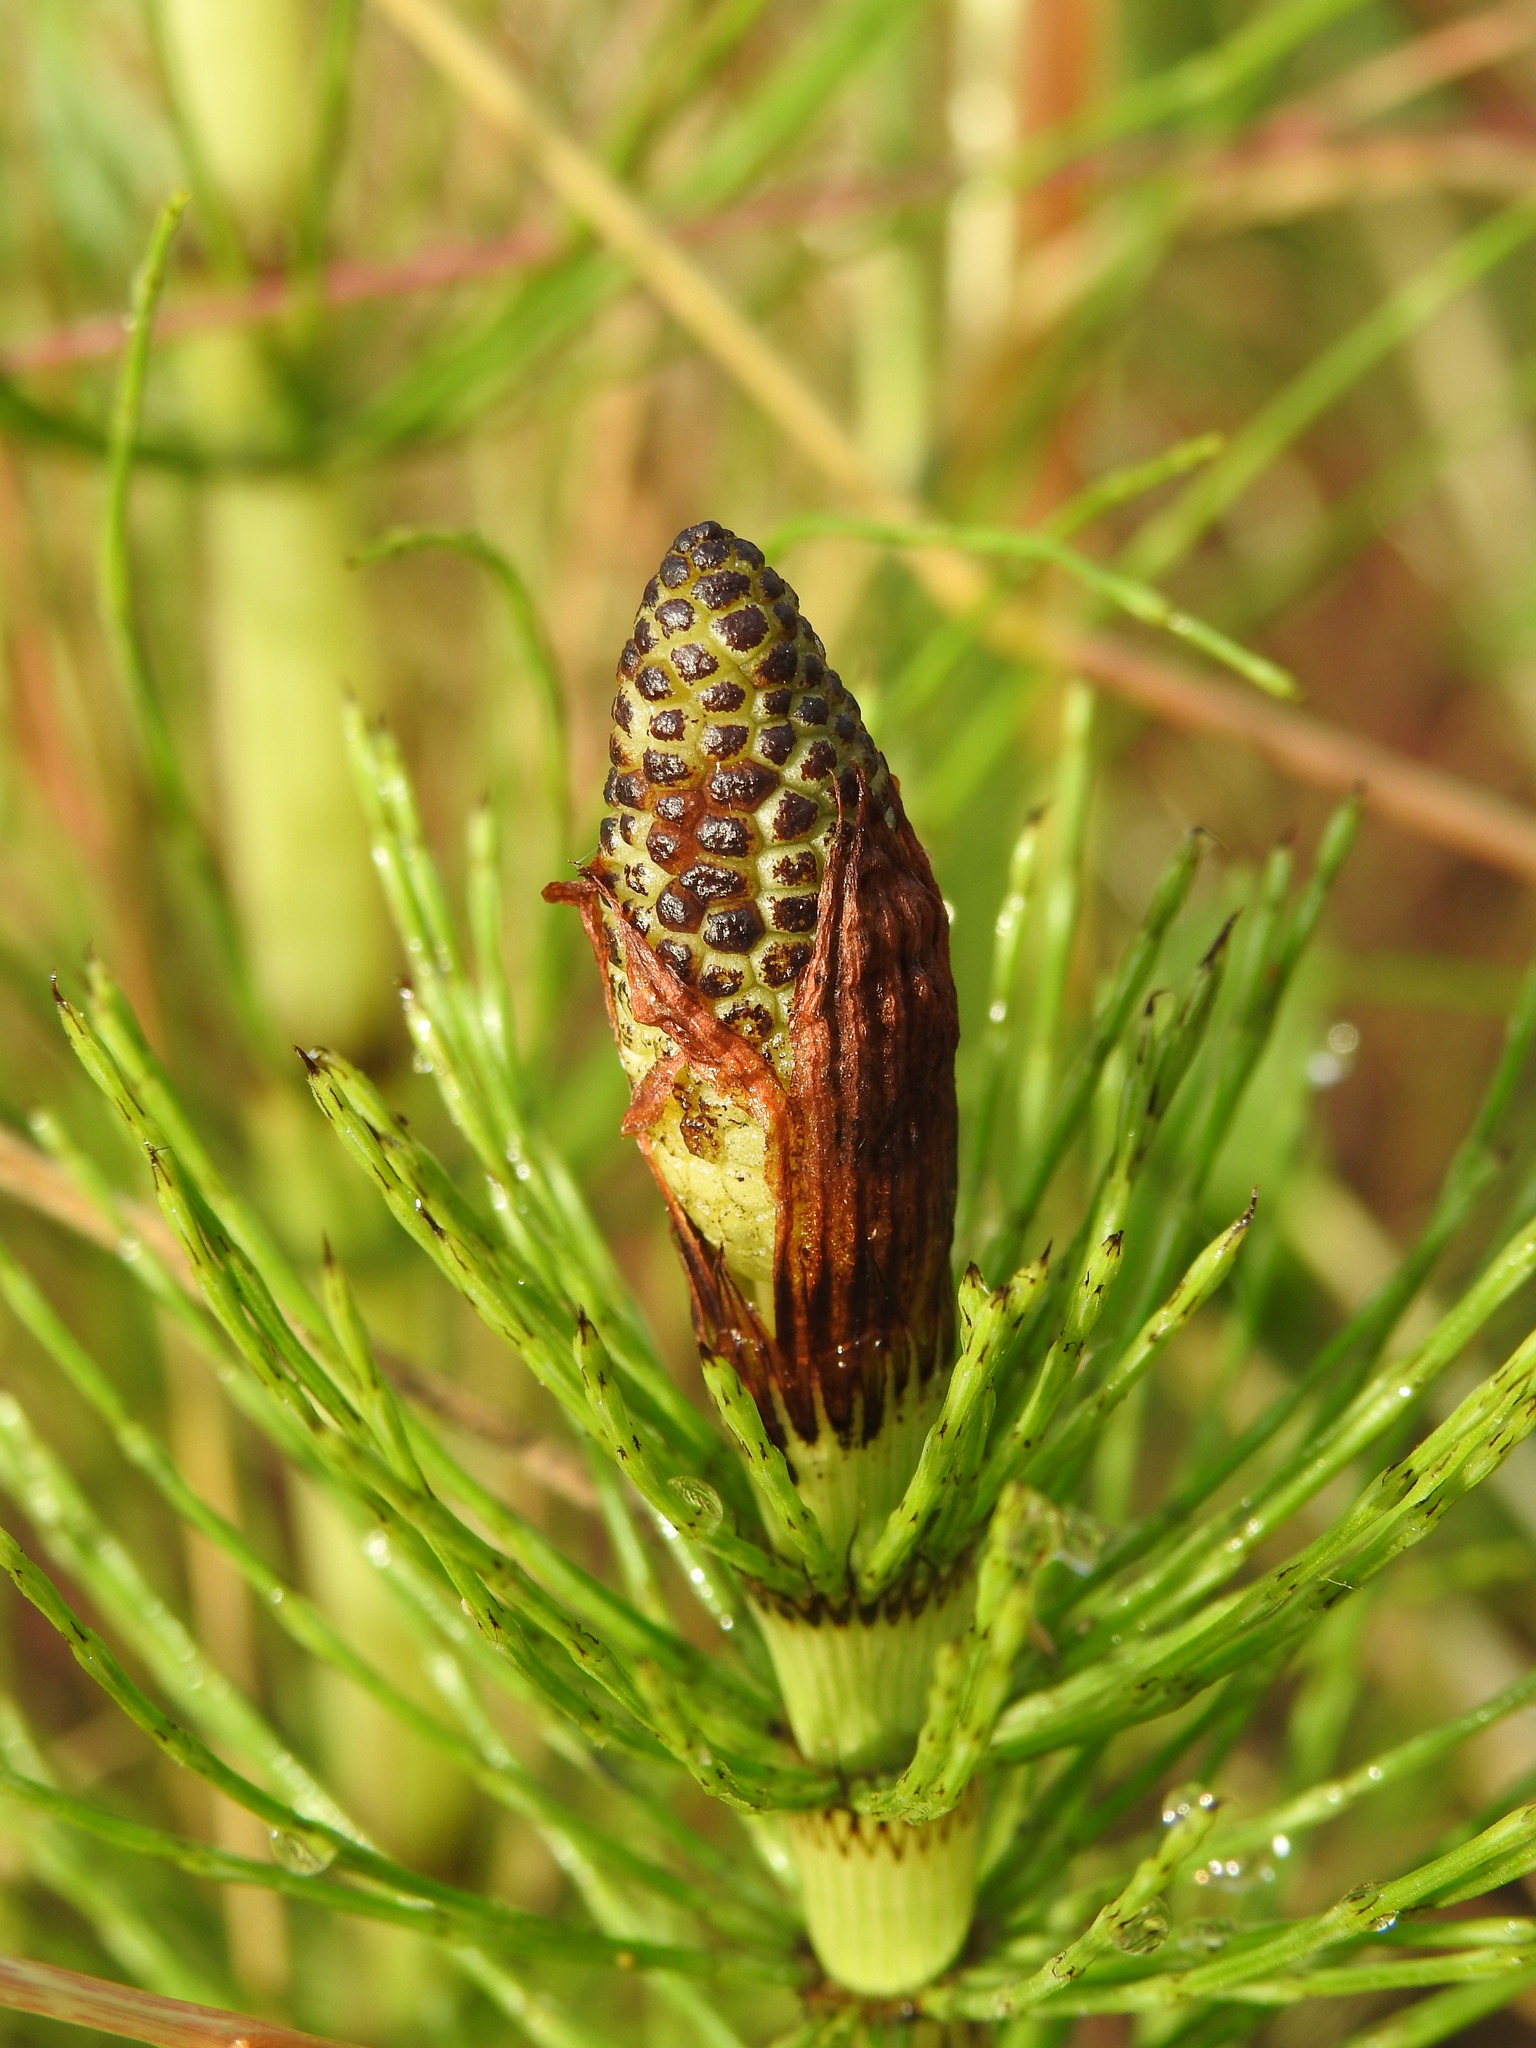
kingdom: Plantae
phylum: Tracheophyta
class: Polypodiopsida
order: Equisetales
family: Equisetaceae
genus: Equisetum
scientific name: Equisetum telmateia
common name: Great horsetail
